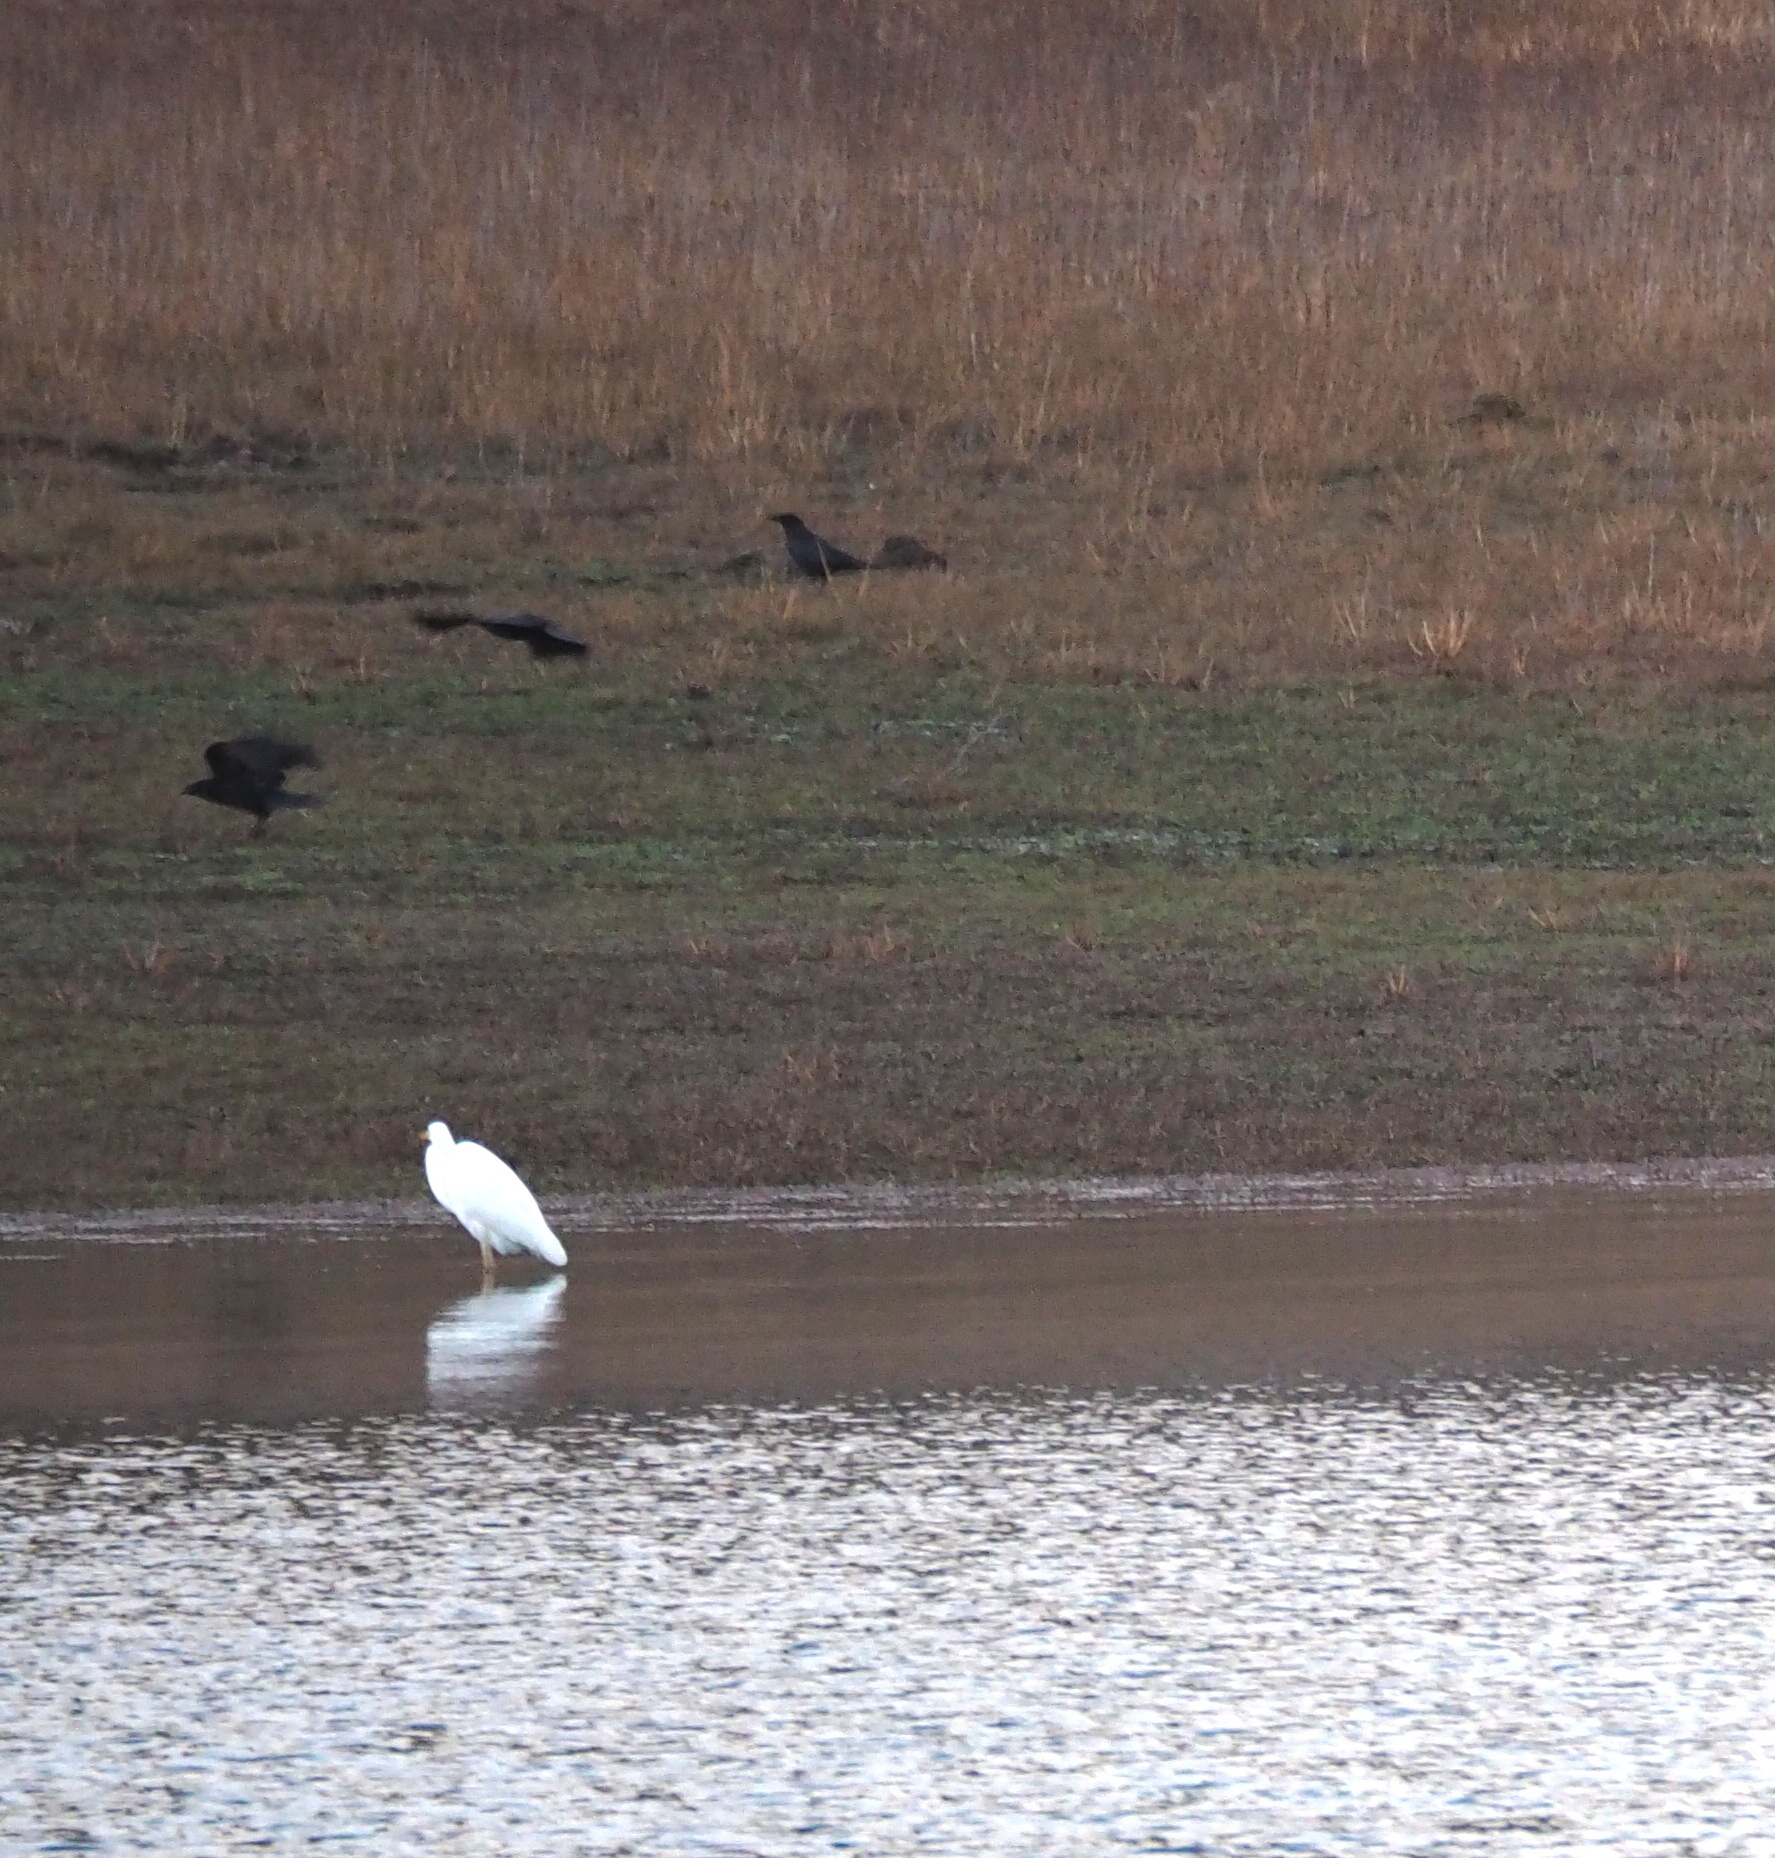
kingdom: Animalia
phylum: Chordata
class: Aves
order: Pelecaniformes
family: Ardeidae
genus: Ardea
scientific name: Ardea alba
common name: Great egret
